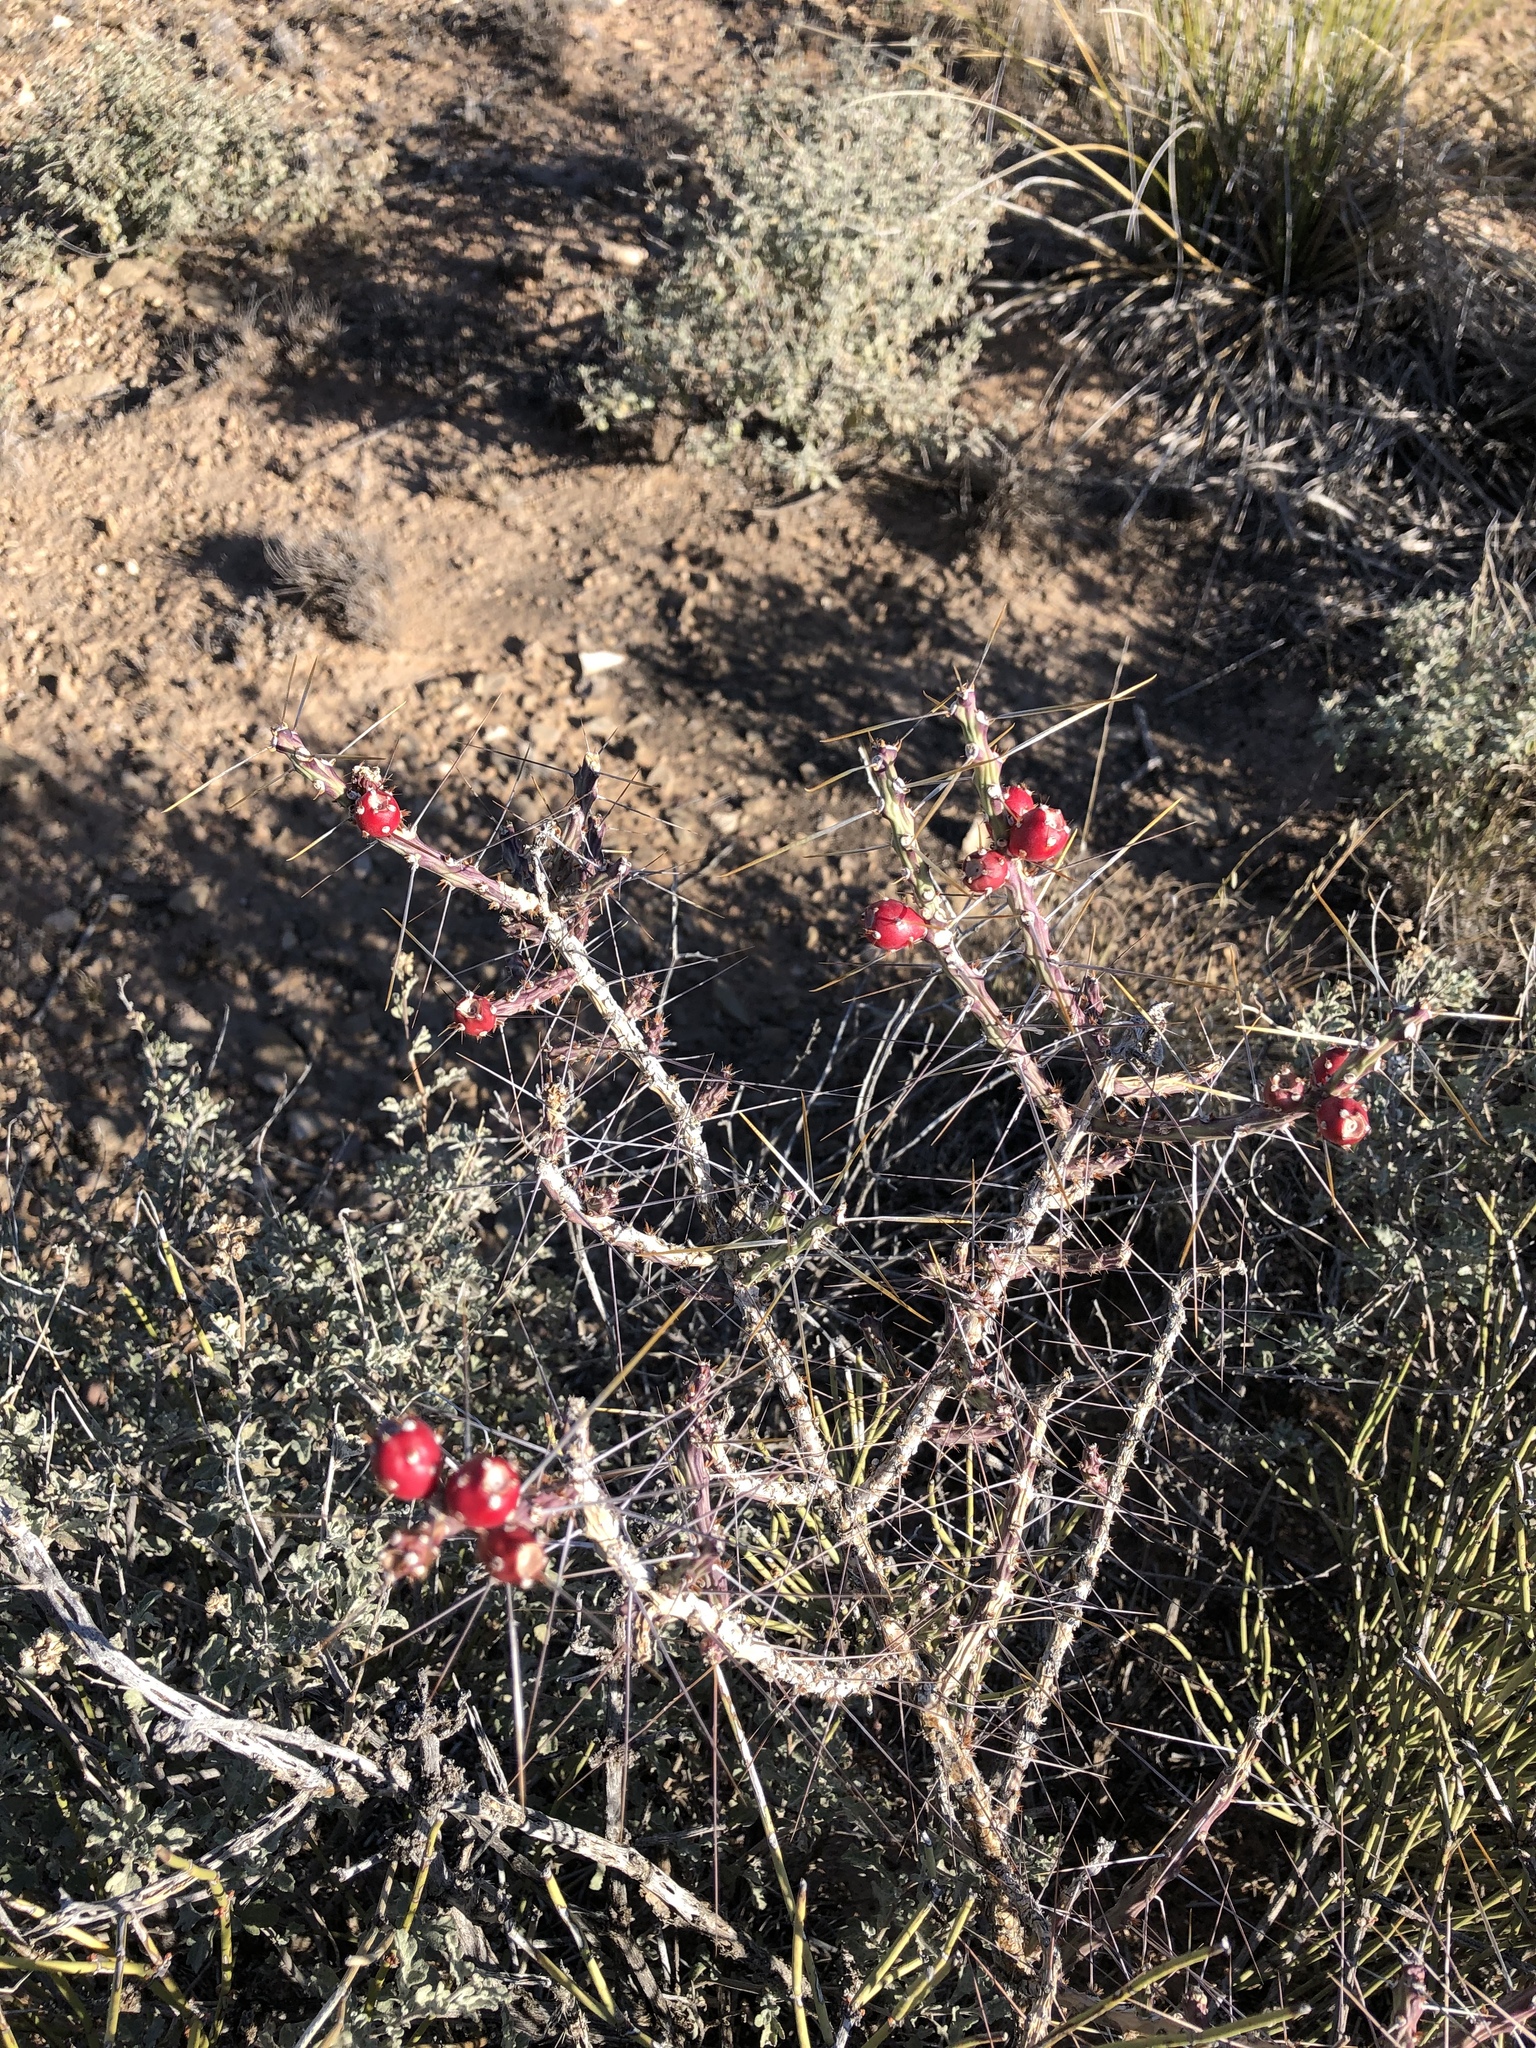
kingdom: Plantae
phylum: Tracheophyta
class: Magnoliopsida
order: Caryophyllales
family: Cactaceae
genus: Cylindropuntia
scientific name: Cylindropuntia leptocaulis
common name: Christmas cactus
